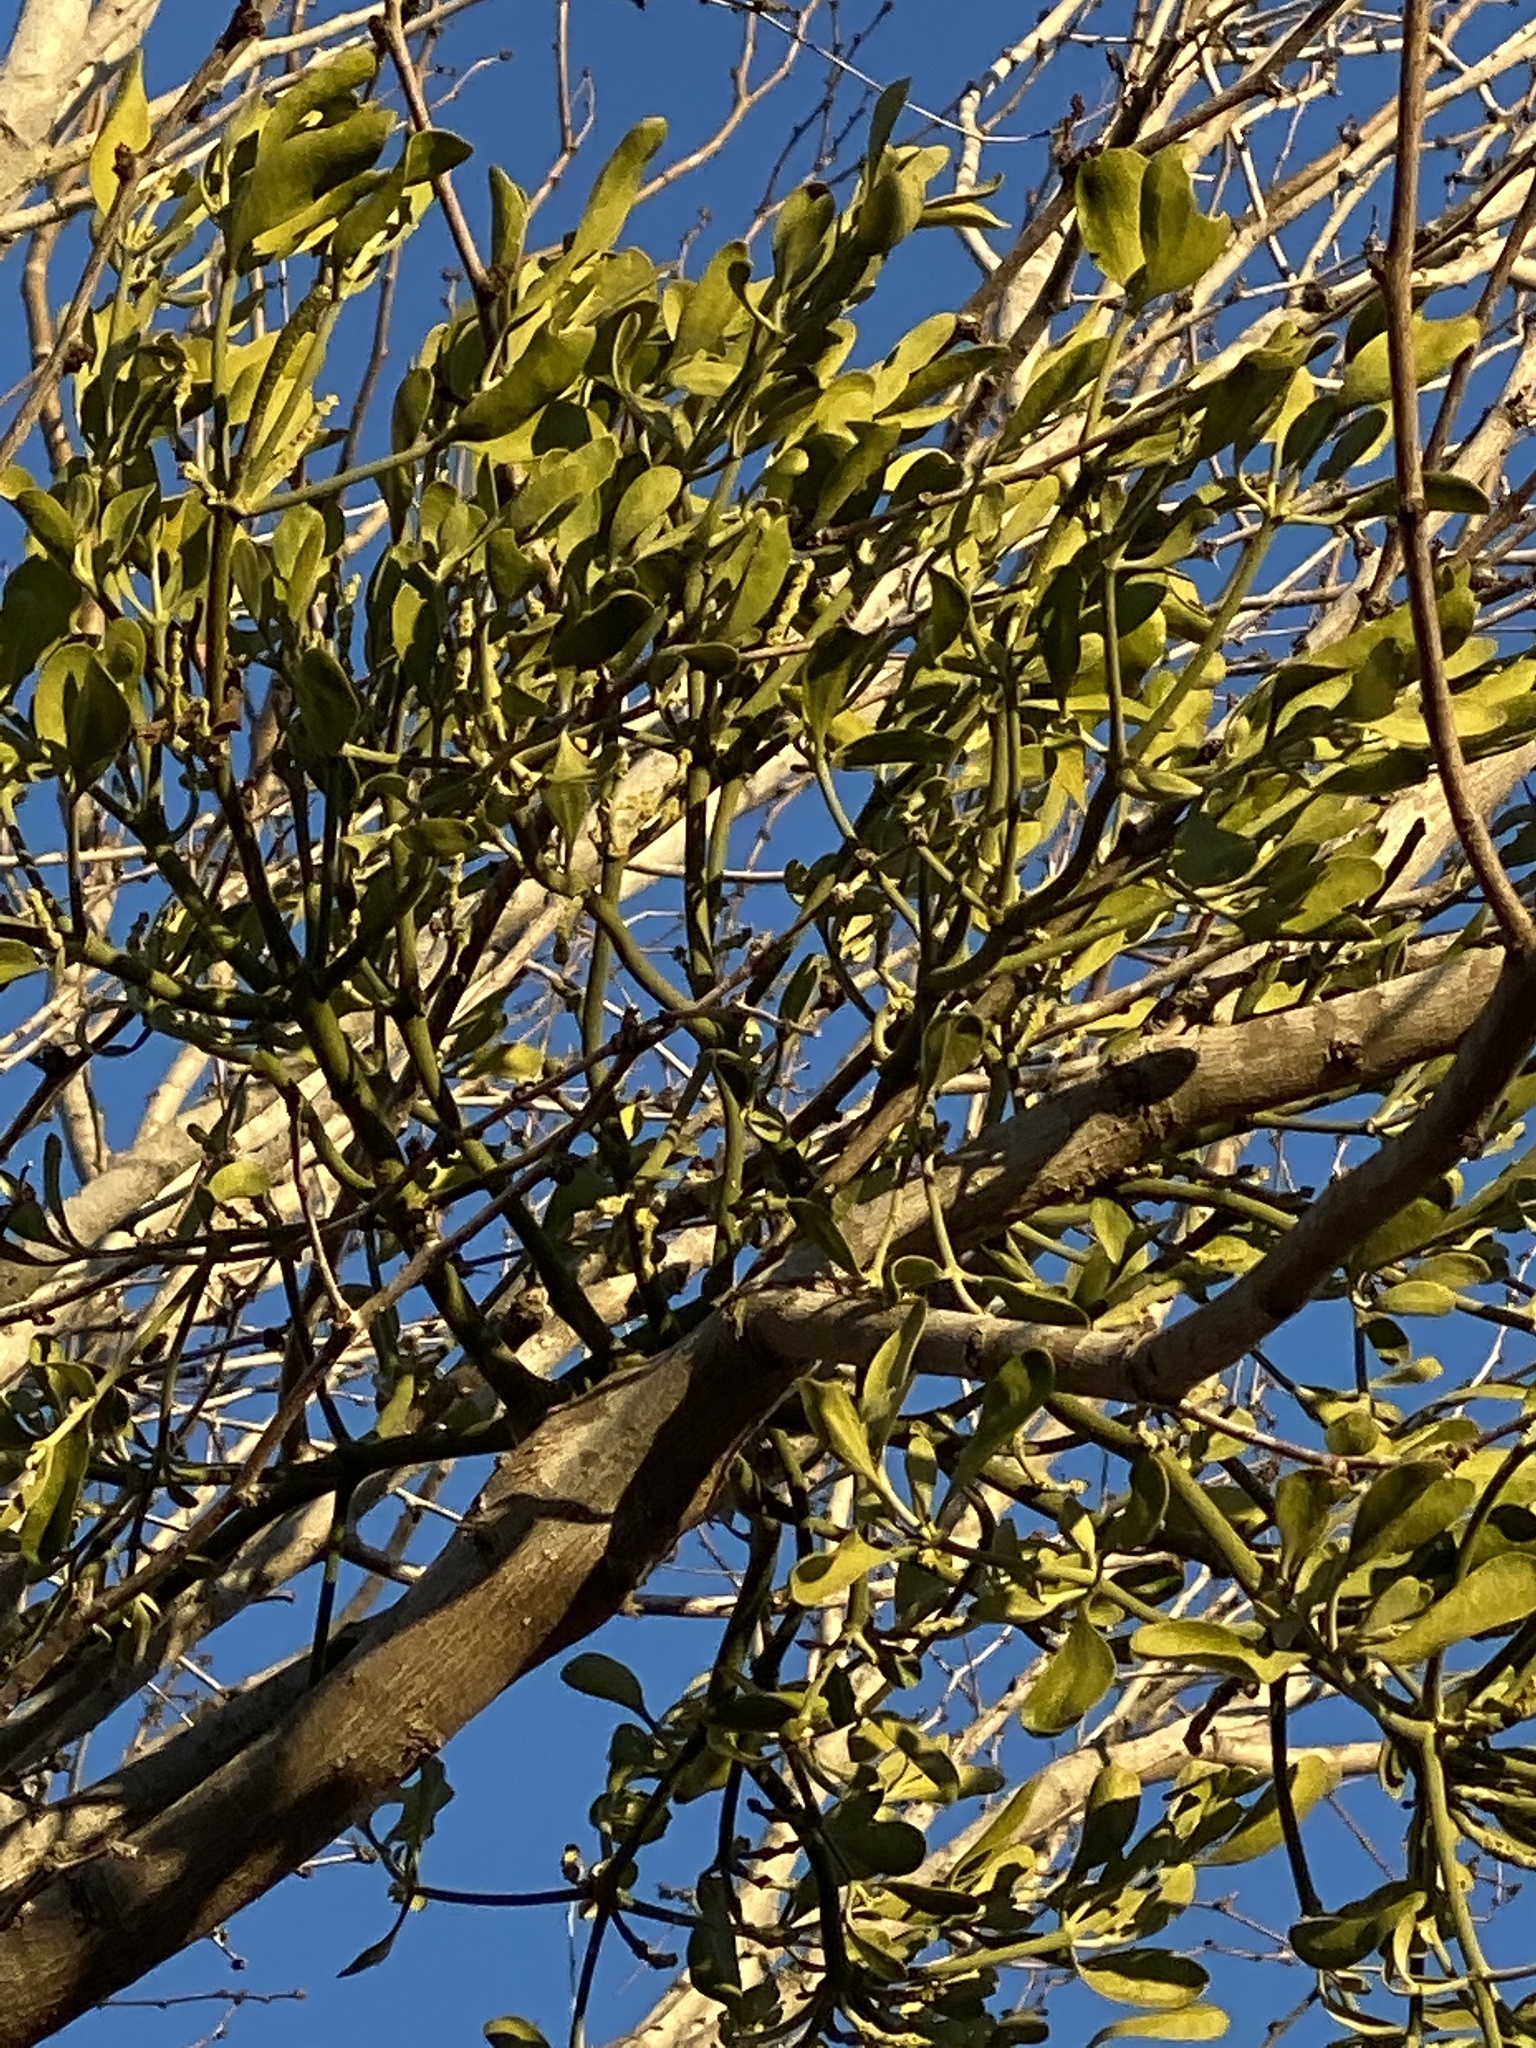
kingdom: Plantae
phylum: Tracheophyta
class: Magnoliopsida
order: Santalales
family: Viscaceae
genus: Phoradendron
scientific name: Phoradendron leucarpum
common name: Pacific mistletoe
